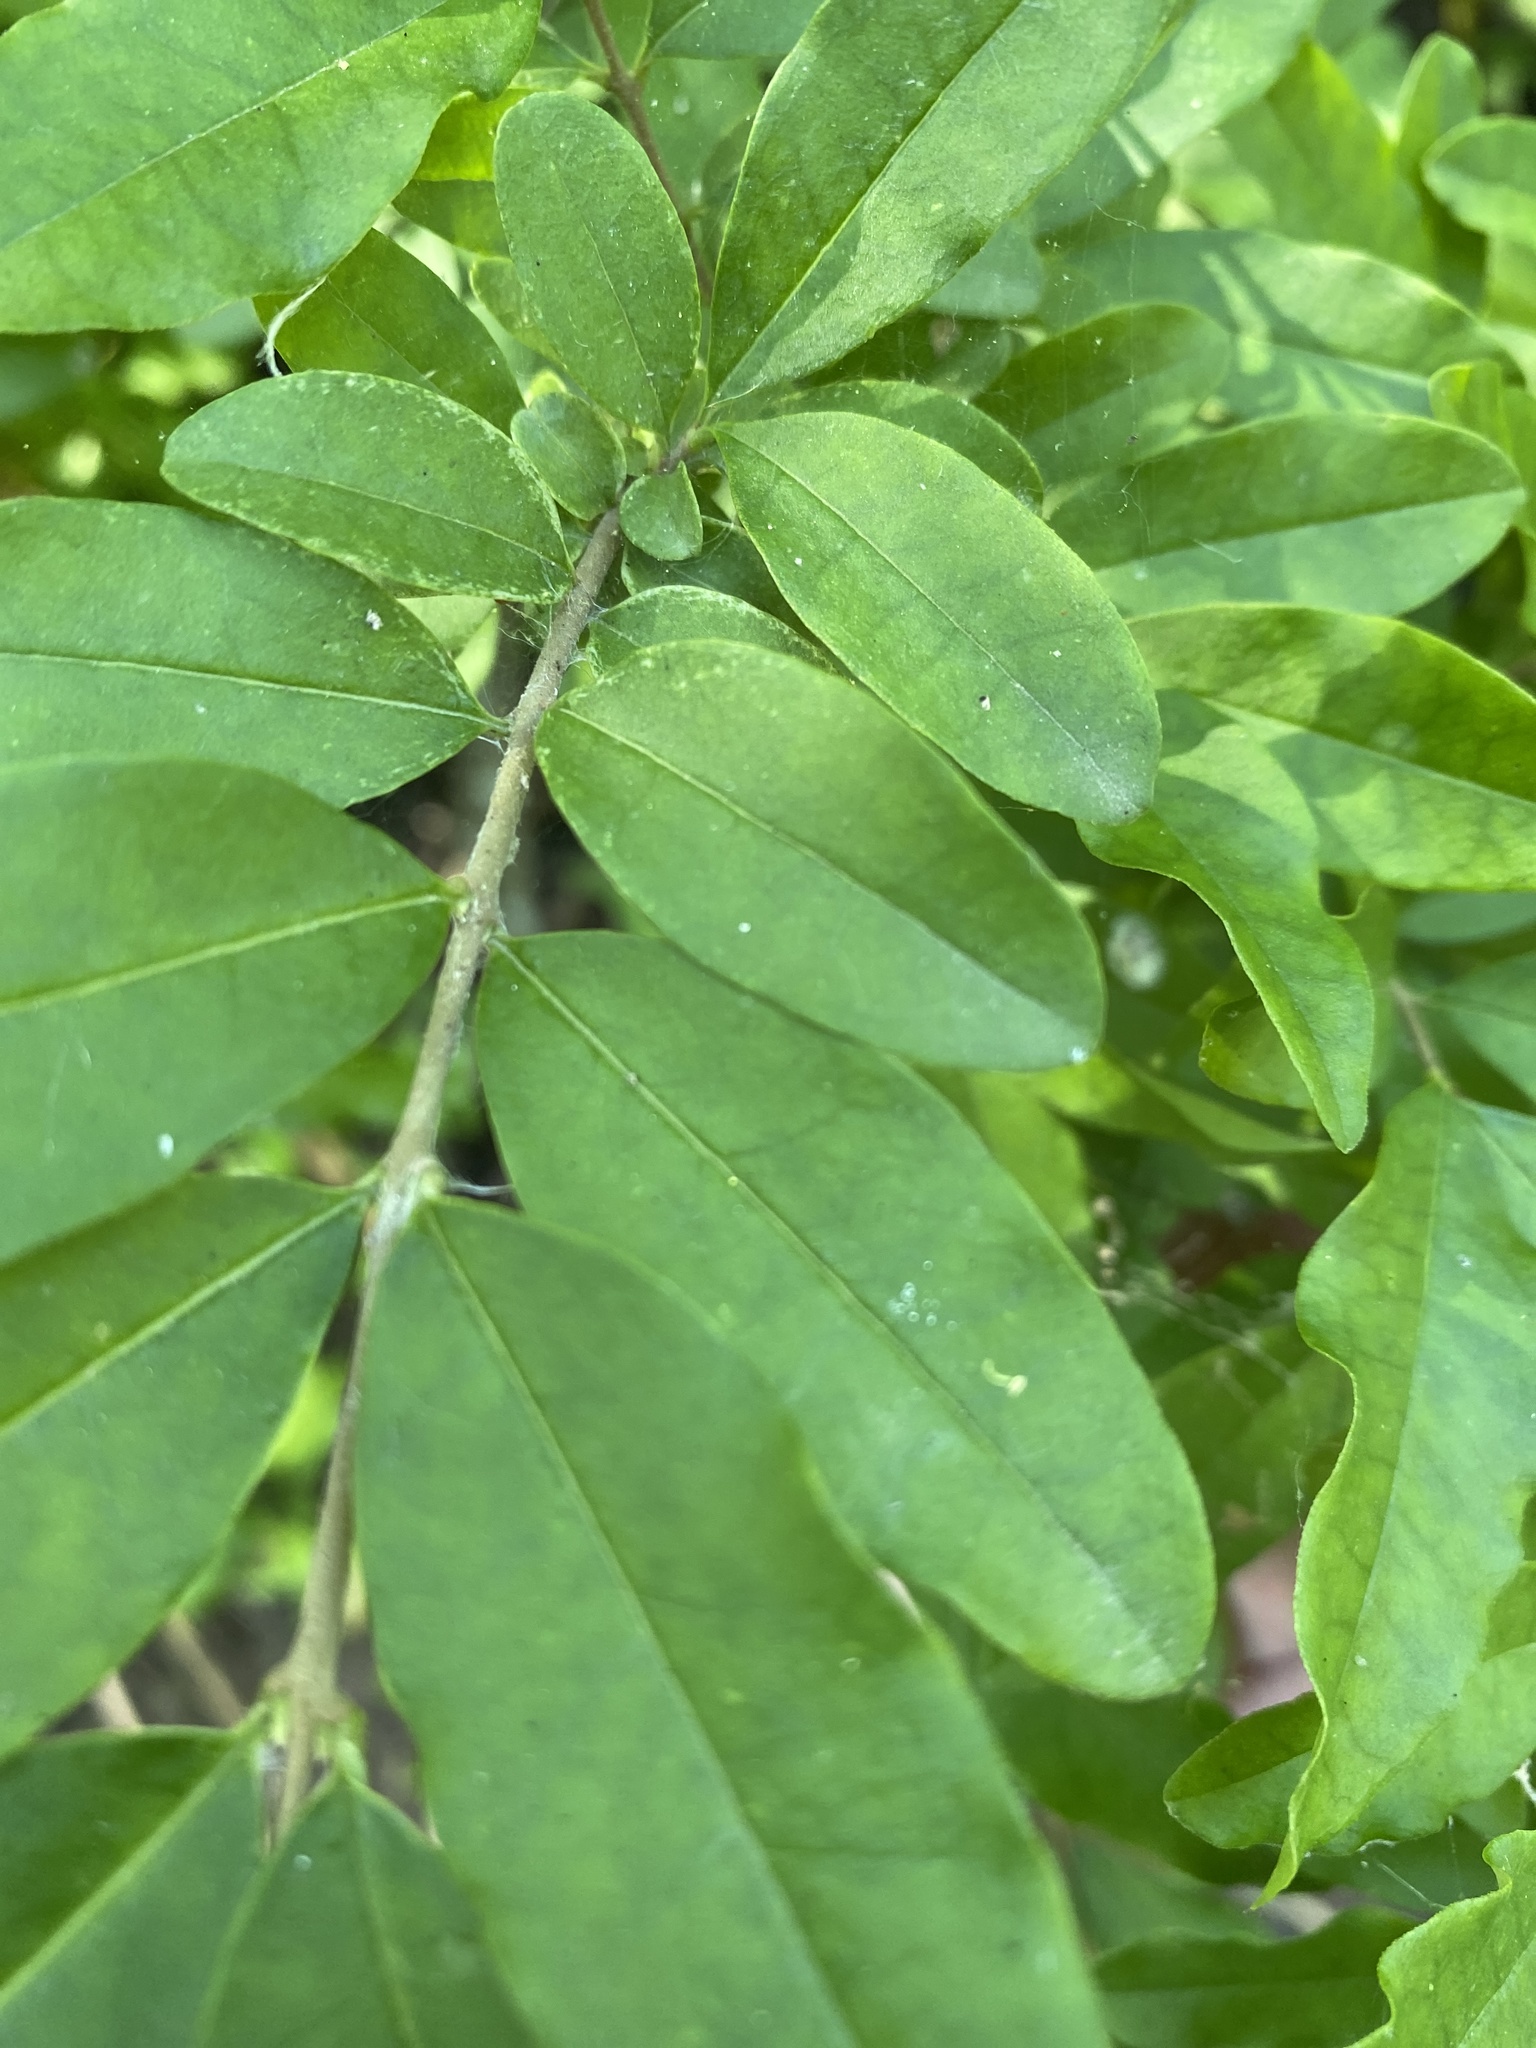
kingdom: Plantae
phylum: Tracheophyta
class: Magnoliopsida
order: Lamiales
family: Oleaceae
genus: Ligustrum
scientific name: Ligustrum obtusifolium
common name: Border privet
